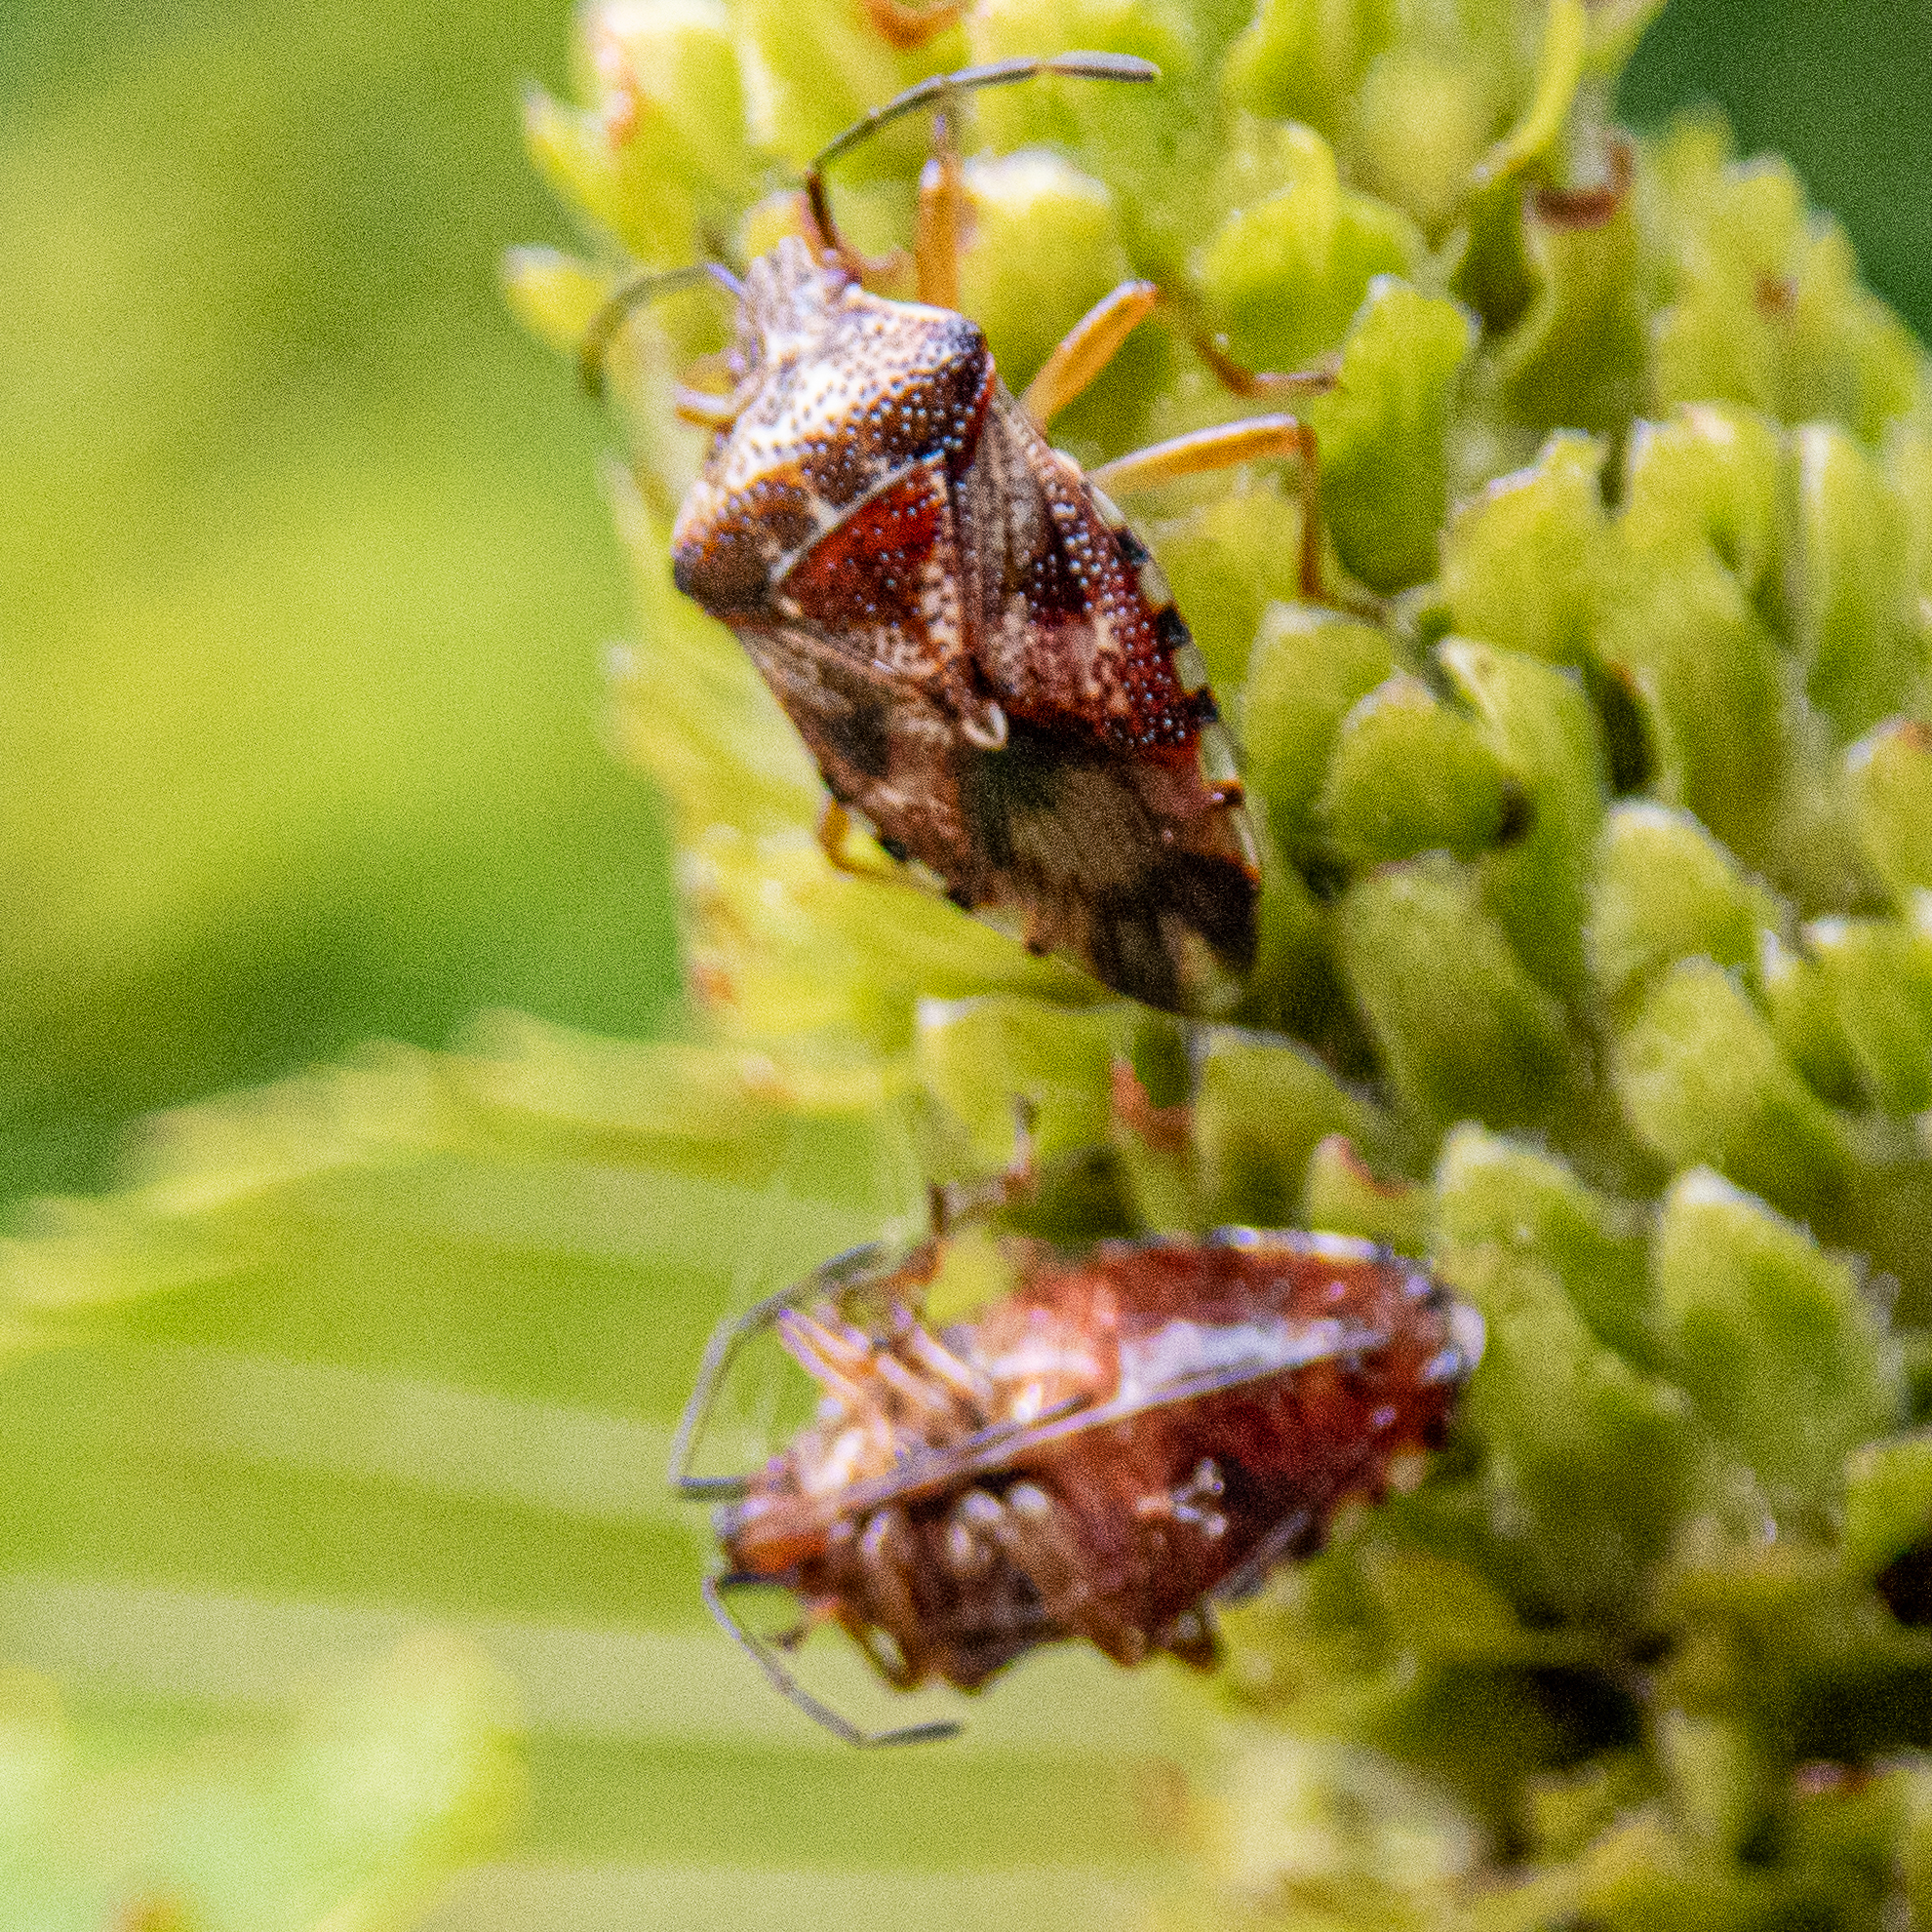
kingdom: Animalia
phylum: Arthropoda
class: Insecta
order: Hemiptera
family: Acanthosomatidae
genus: Elasmucha
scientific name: Elasmucha lateralis
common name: Shield bug
